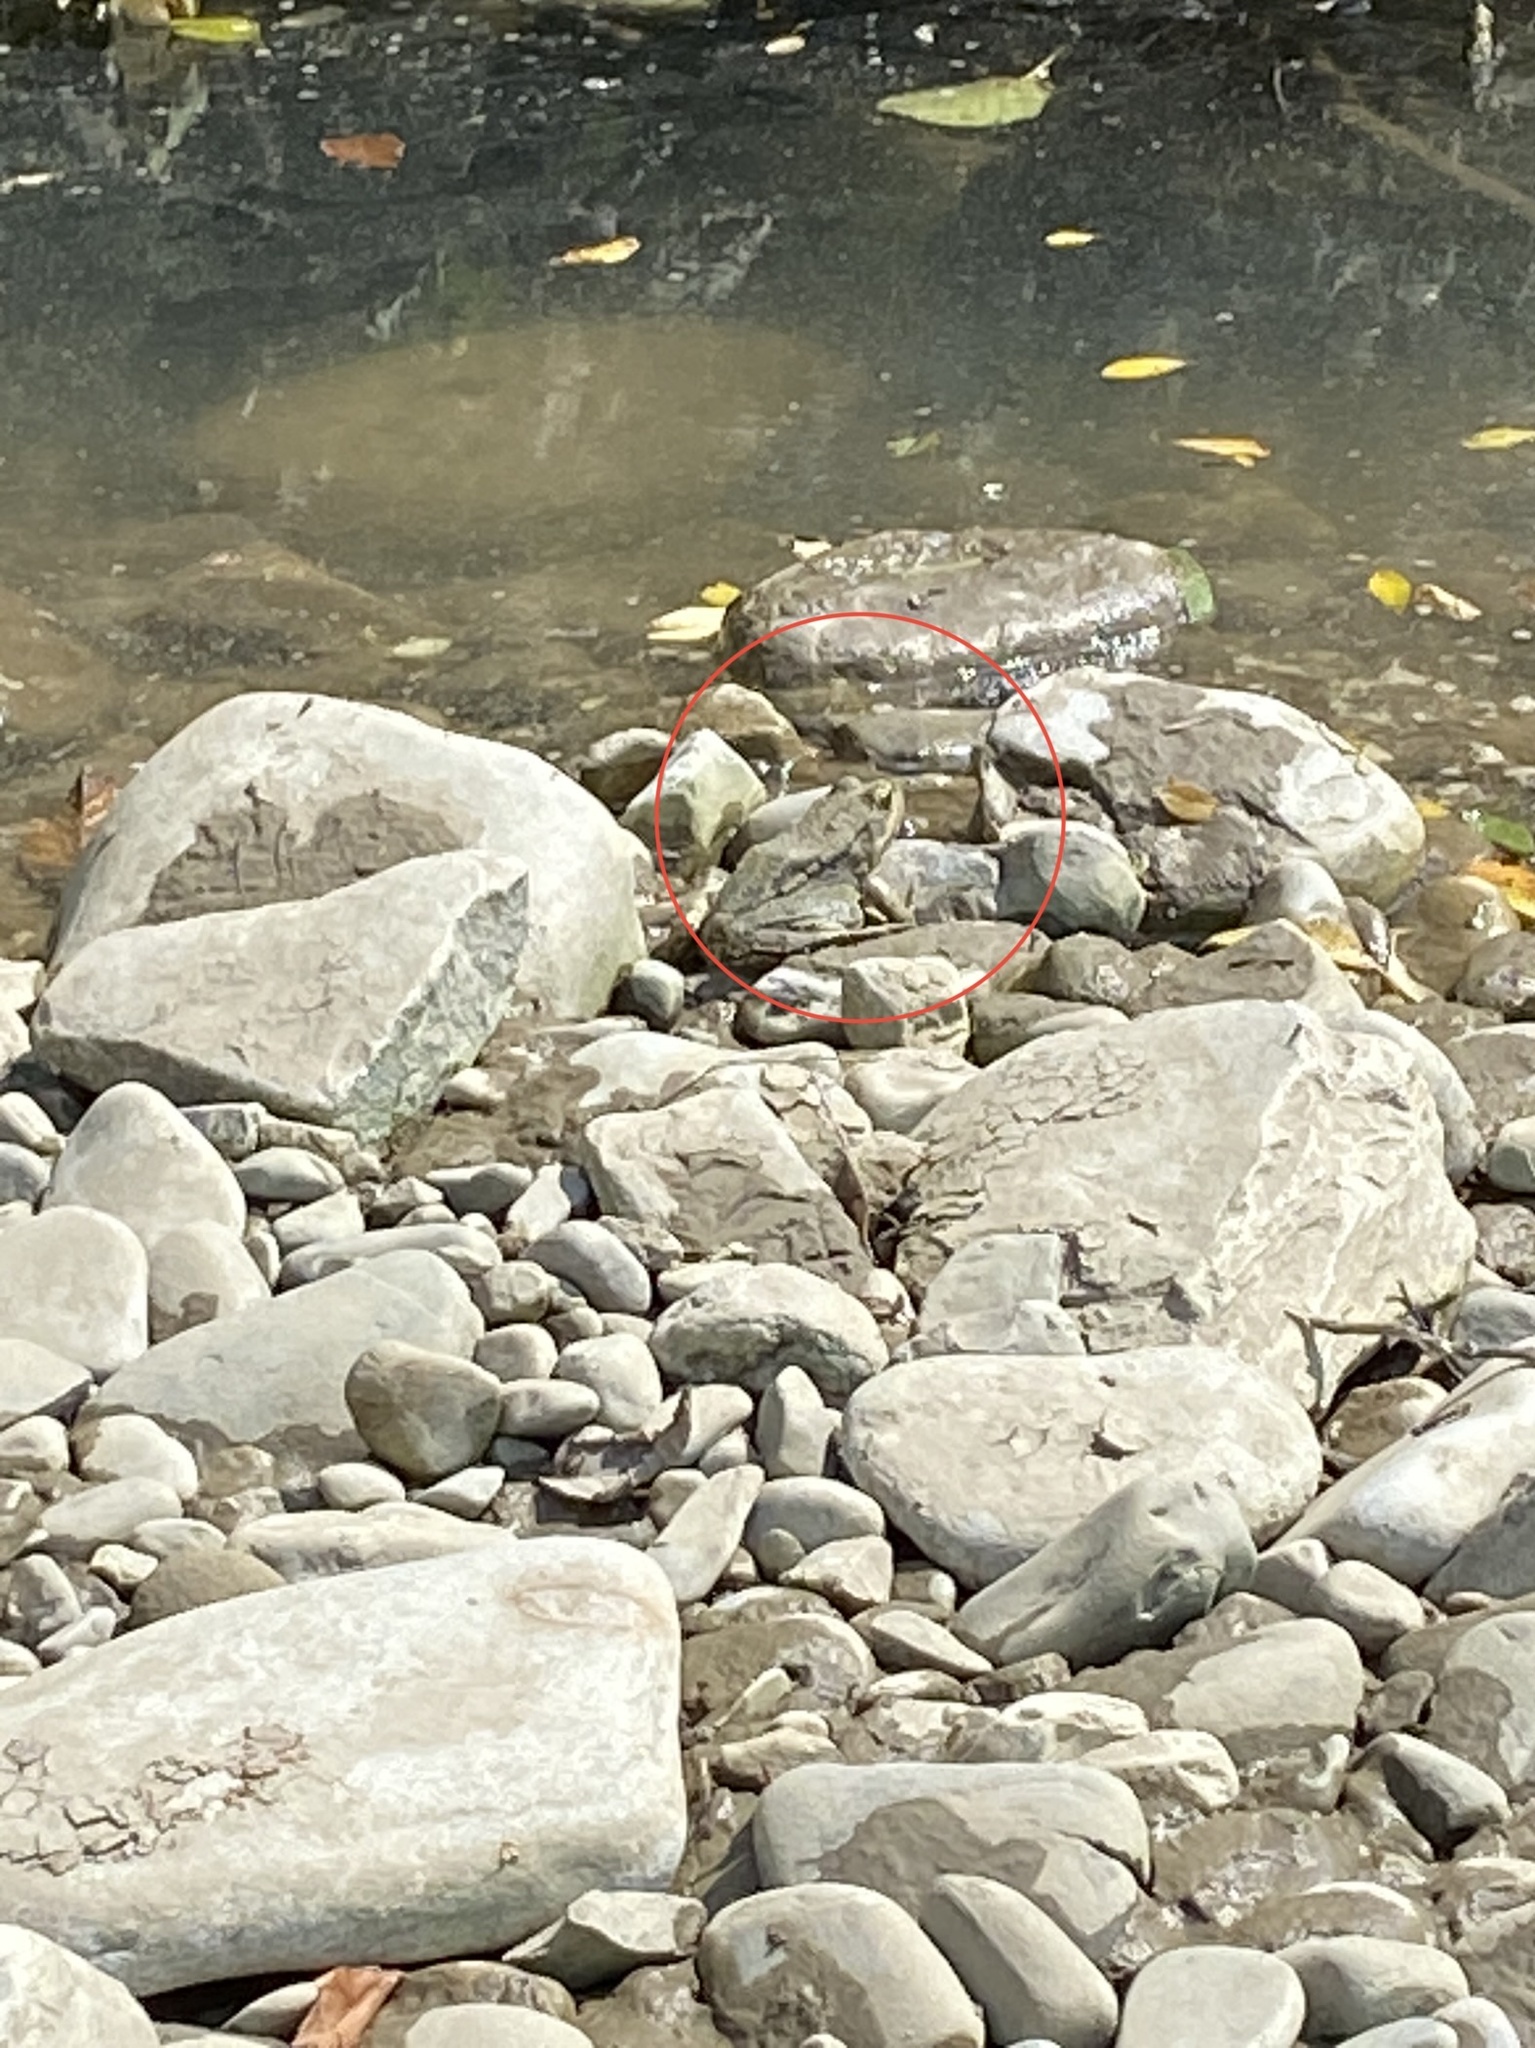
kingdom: Animalia
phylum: Chordata
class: Amphibia
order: Anura
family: Ranidae
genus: Pelophylax
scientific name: Pelophylax ridibundus
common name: Marsh frog
